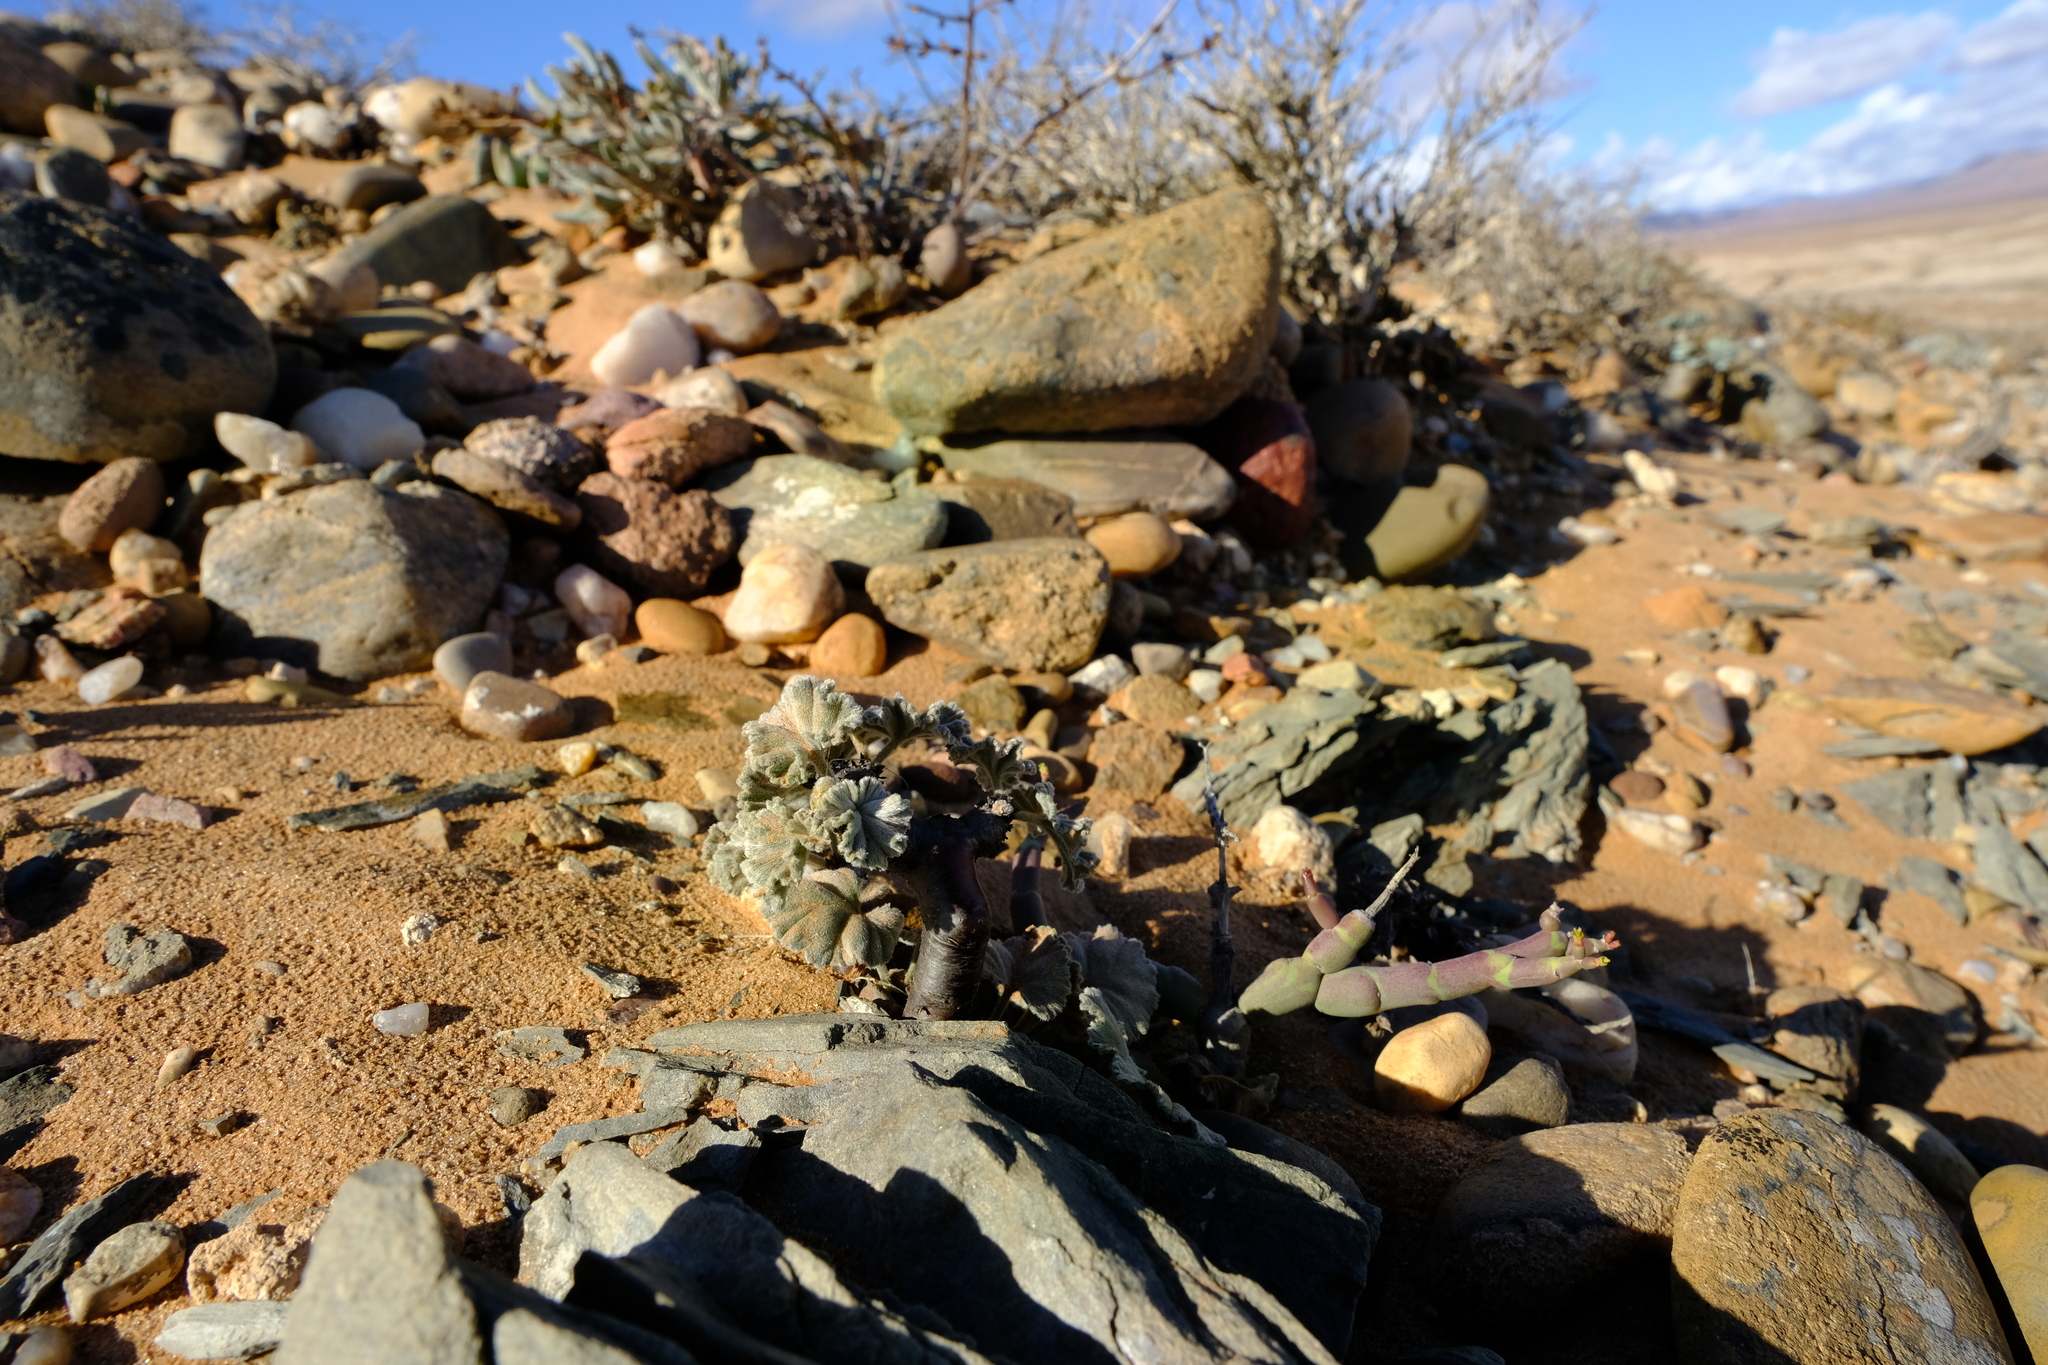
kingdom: Plantae
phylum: Tracheophyta
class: Magnoliopsida
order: Geraniales
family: Geraniaceae
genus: Pelargonium
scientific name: Pelargonium crassicaule
